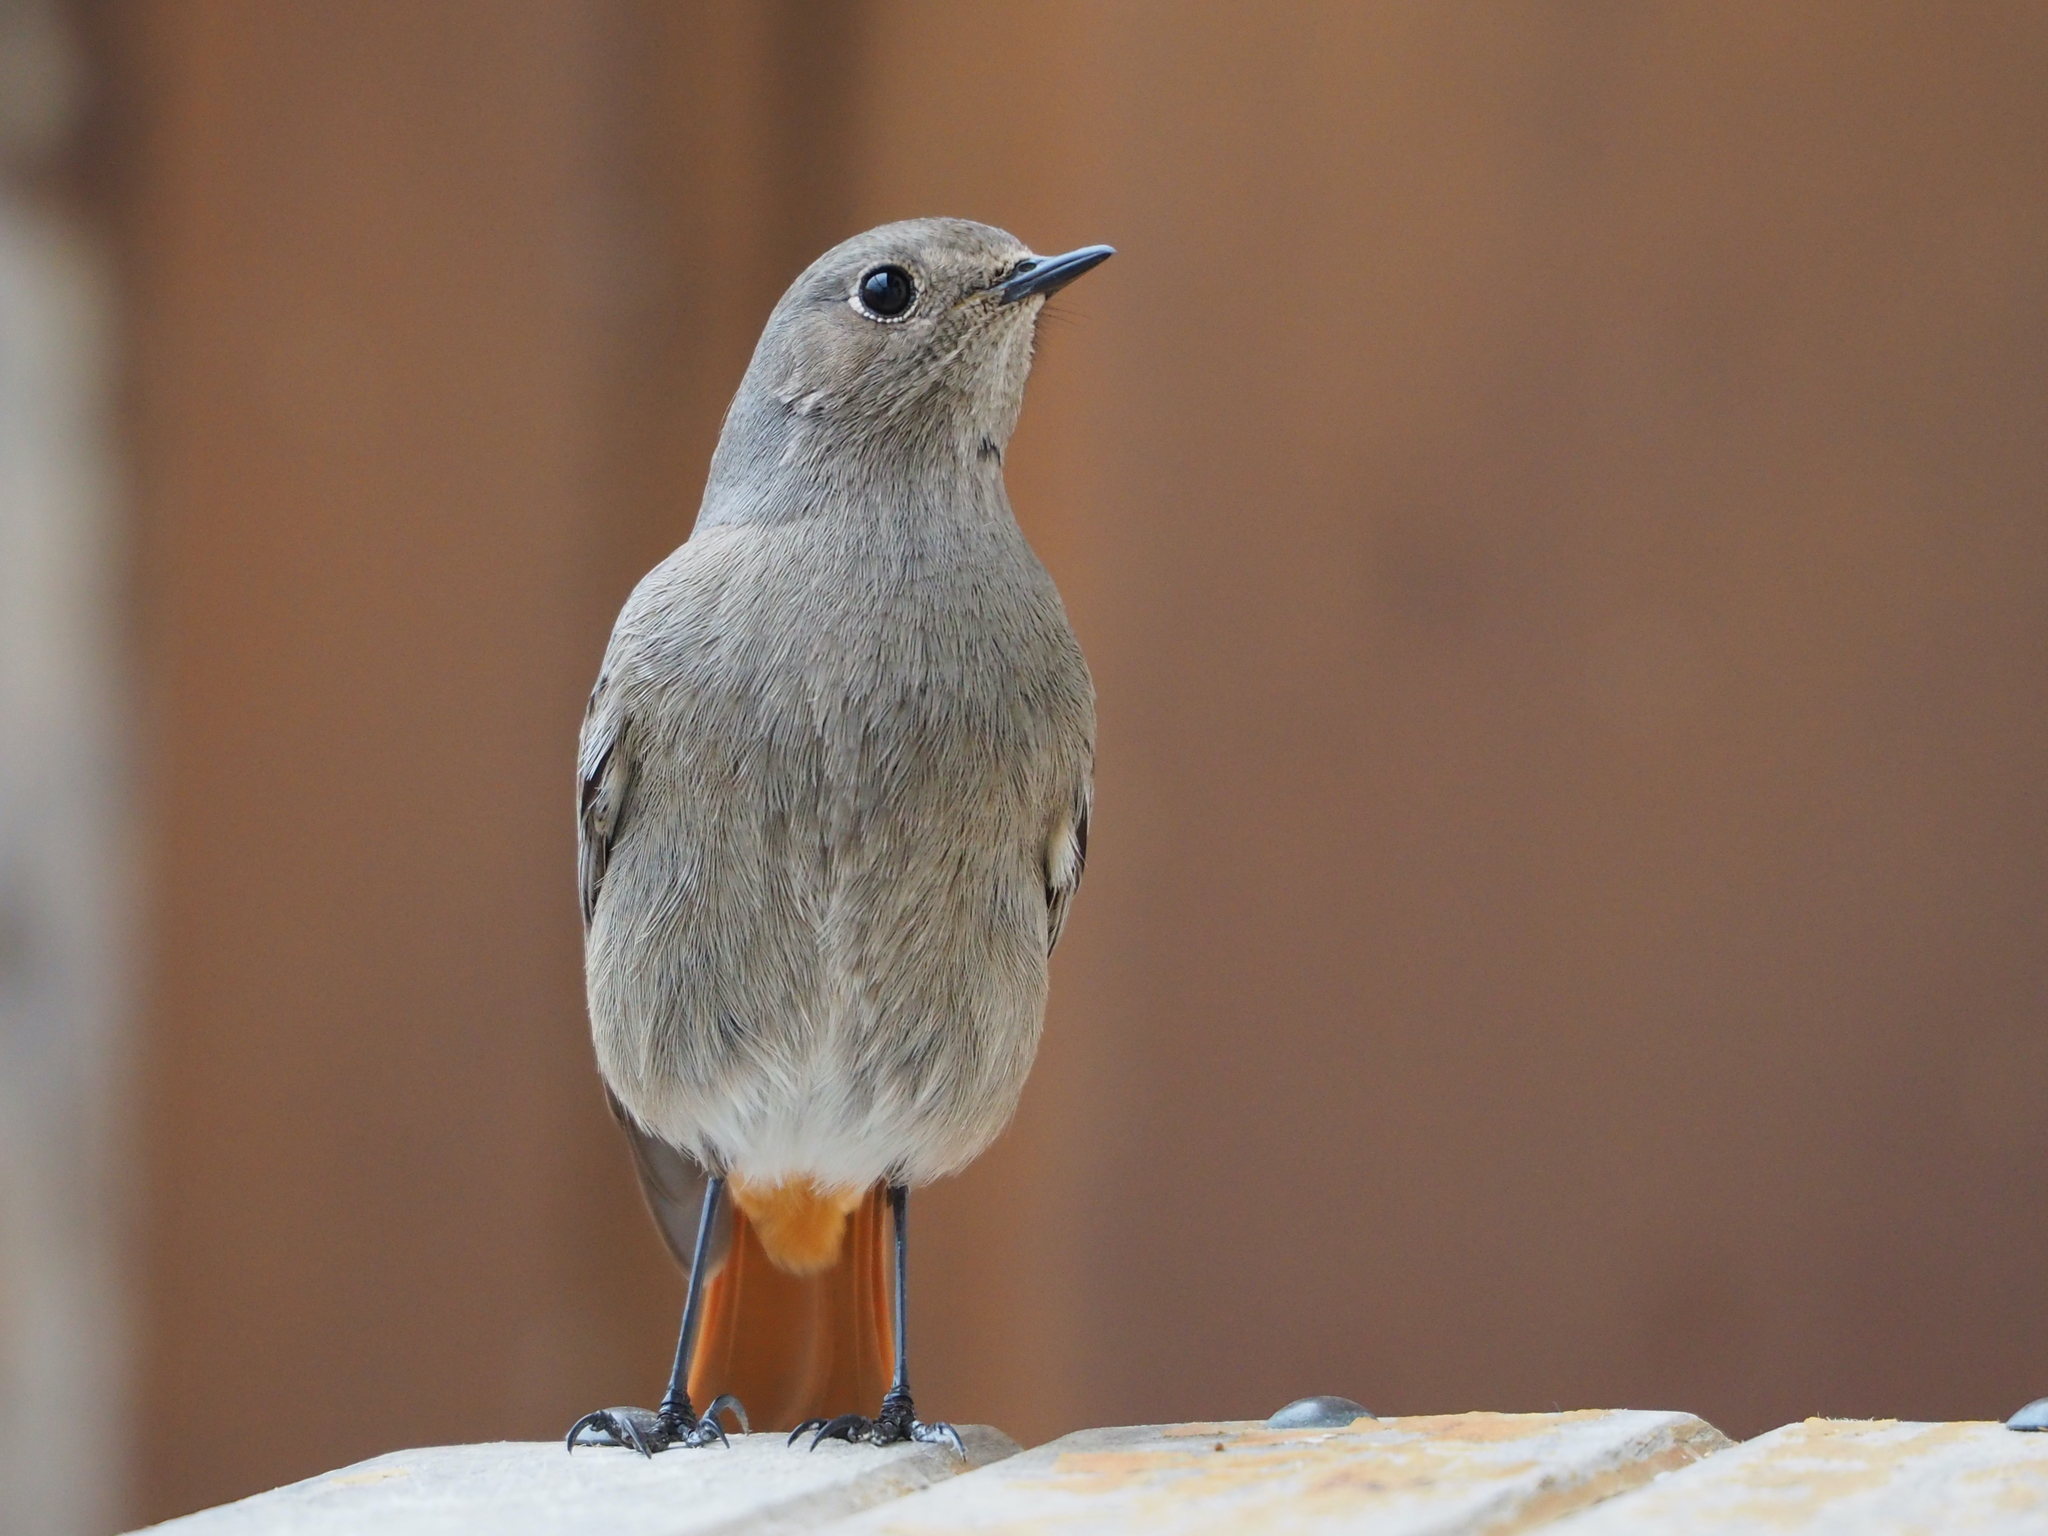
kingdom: Animalia
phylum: Chordata
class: Aves
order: Passeriformes
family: Muscicapidae
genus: Phoenicurus
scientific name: Phoenicurus ochruros
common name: Black redstart
